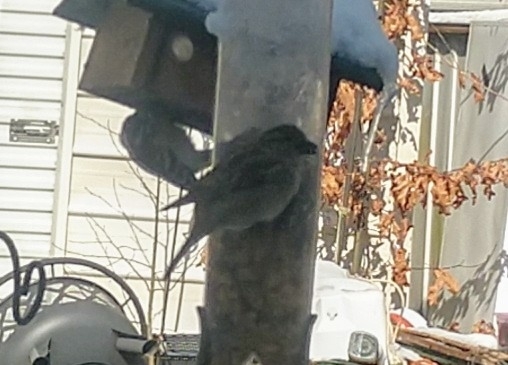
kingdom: Animalia
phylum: Chordata
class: Aves
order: Passeriformes
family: Passeridae
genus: Passer
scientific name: Passer domesticus
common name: House sparrow
